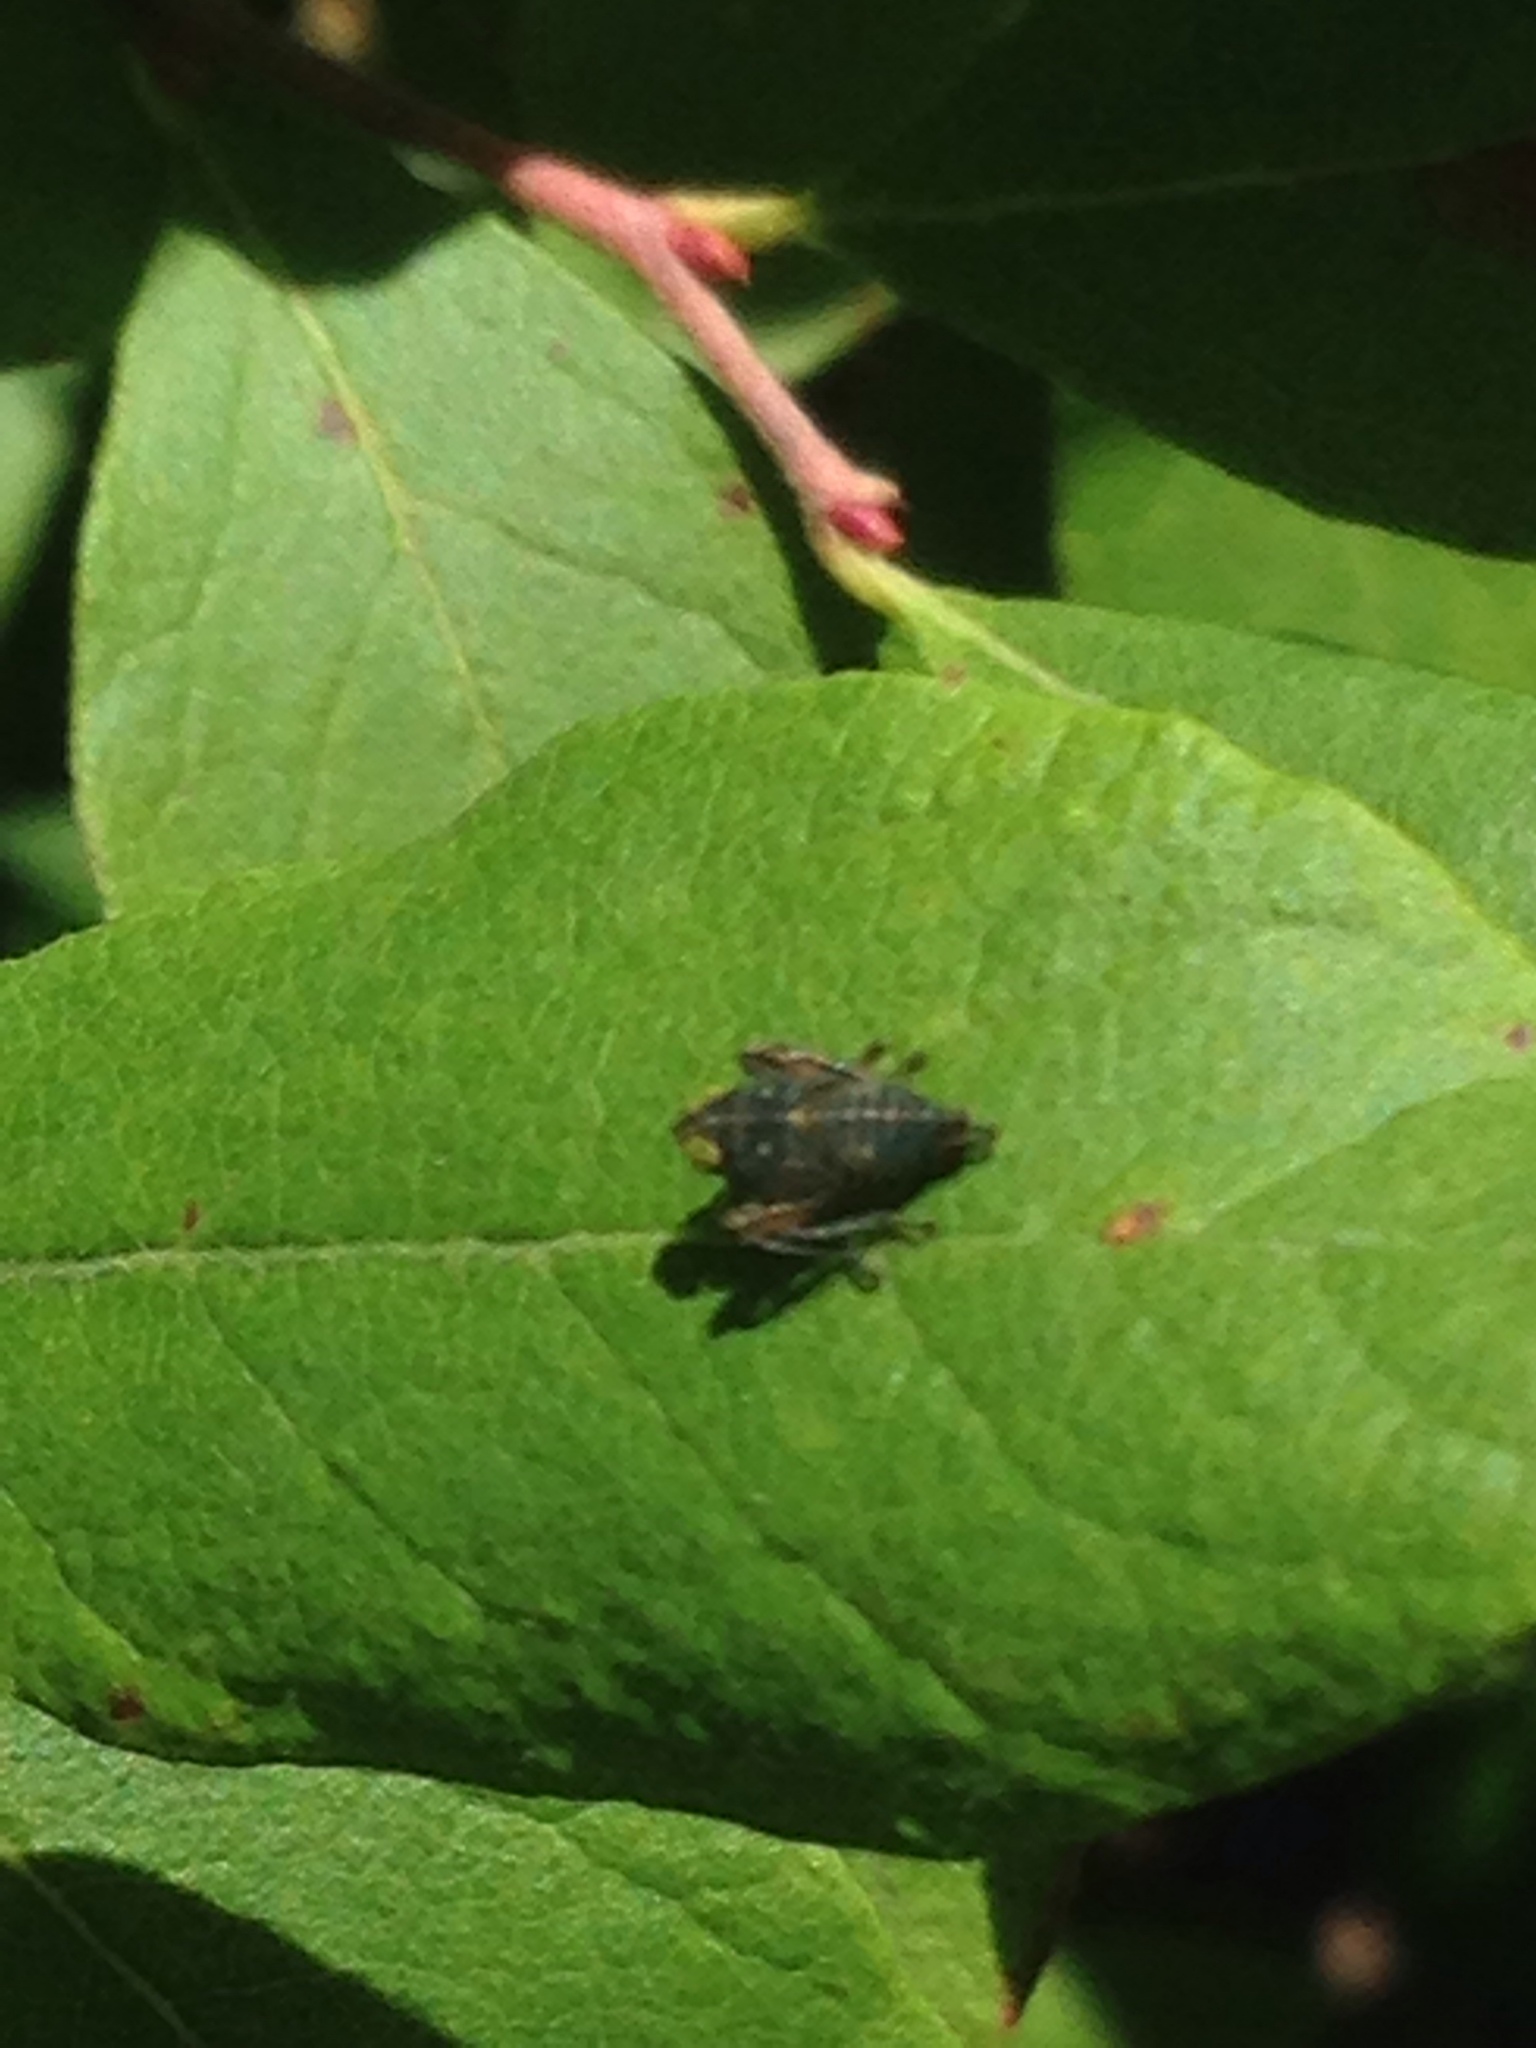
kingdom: Animalia
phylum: Arthropoda
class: Insecta
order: Hemiptera
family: Cicadellidae
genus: Jikradia
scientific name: Jikradia olitoria
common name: Coppery leafhopper
